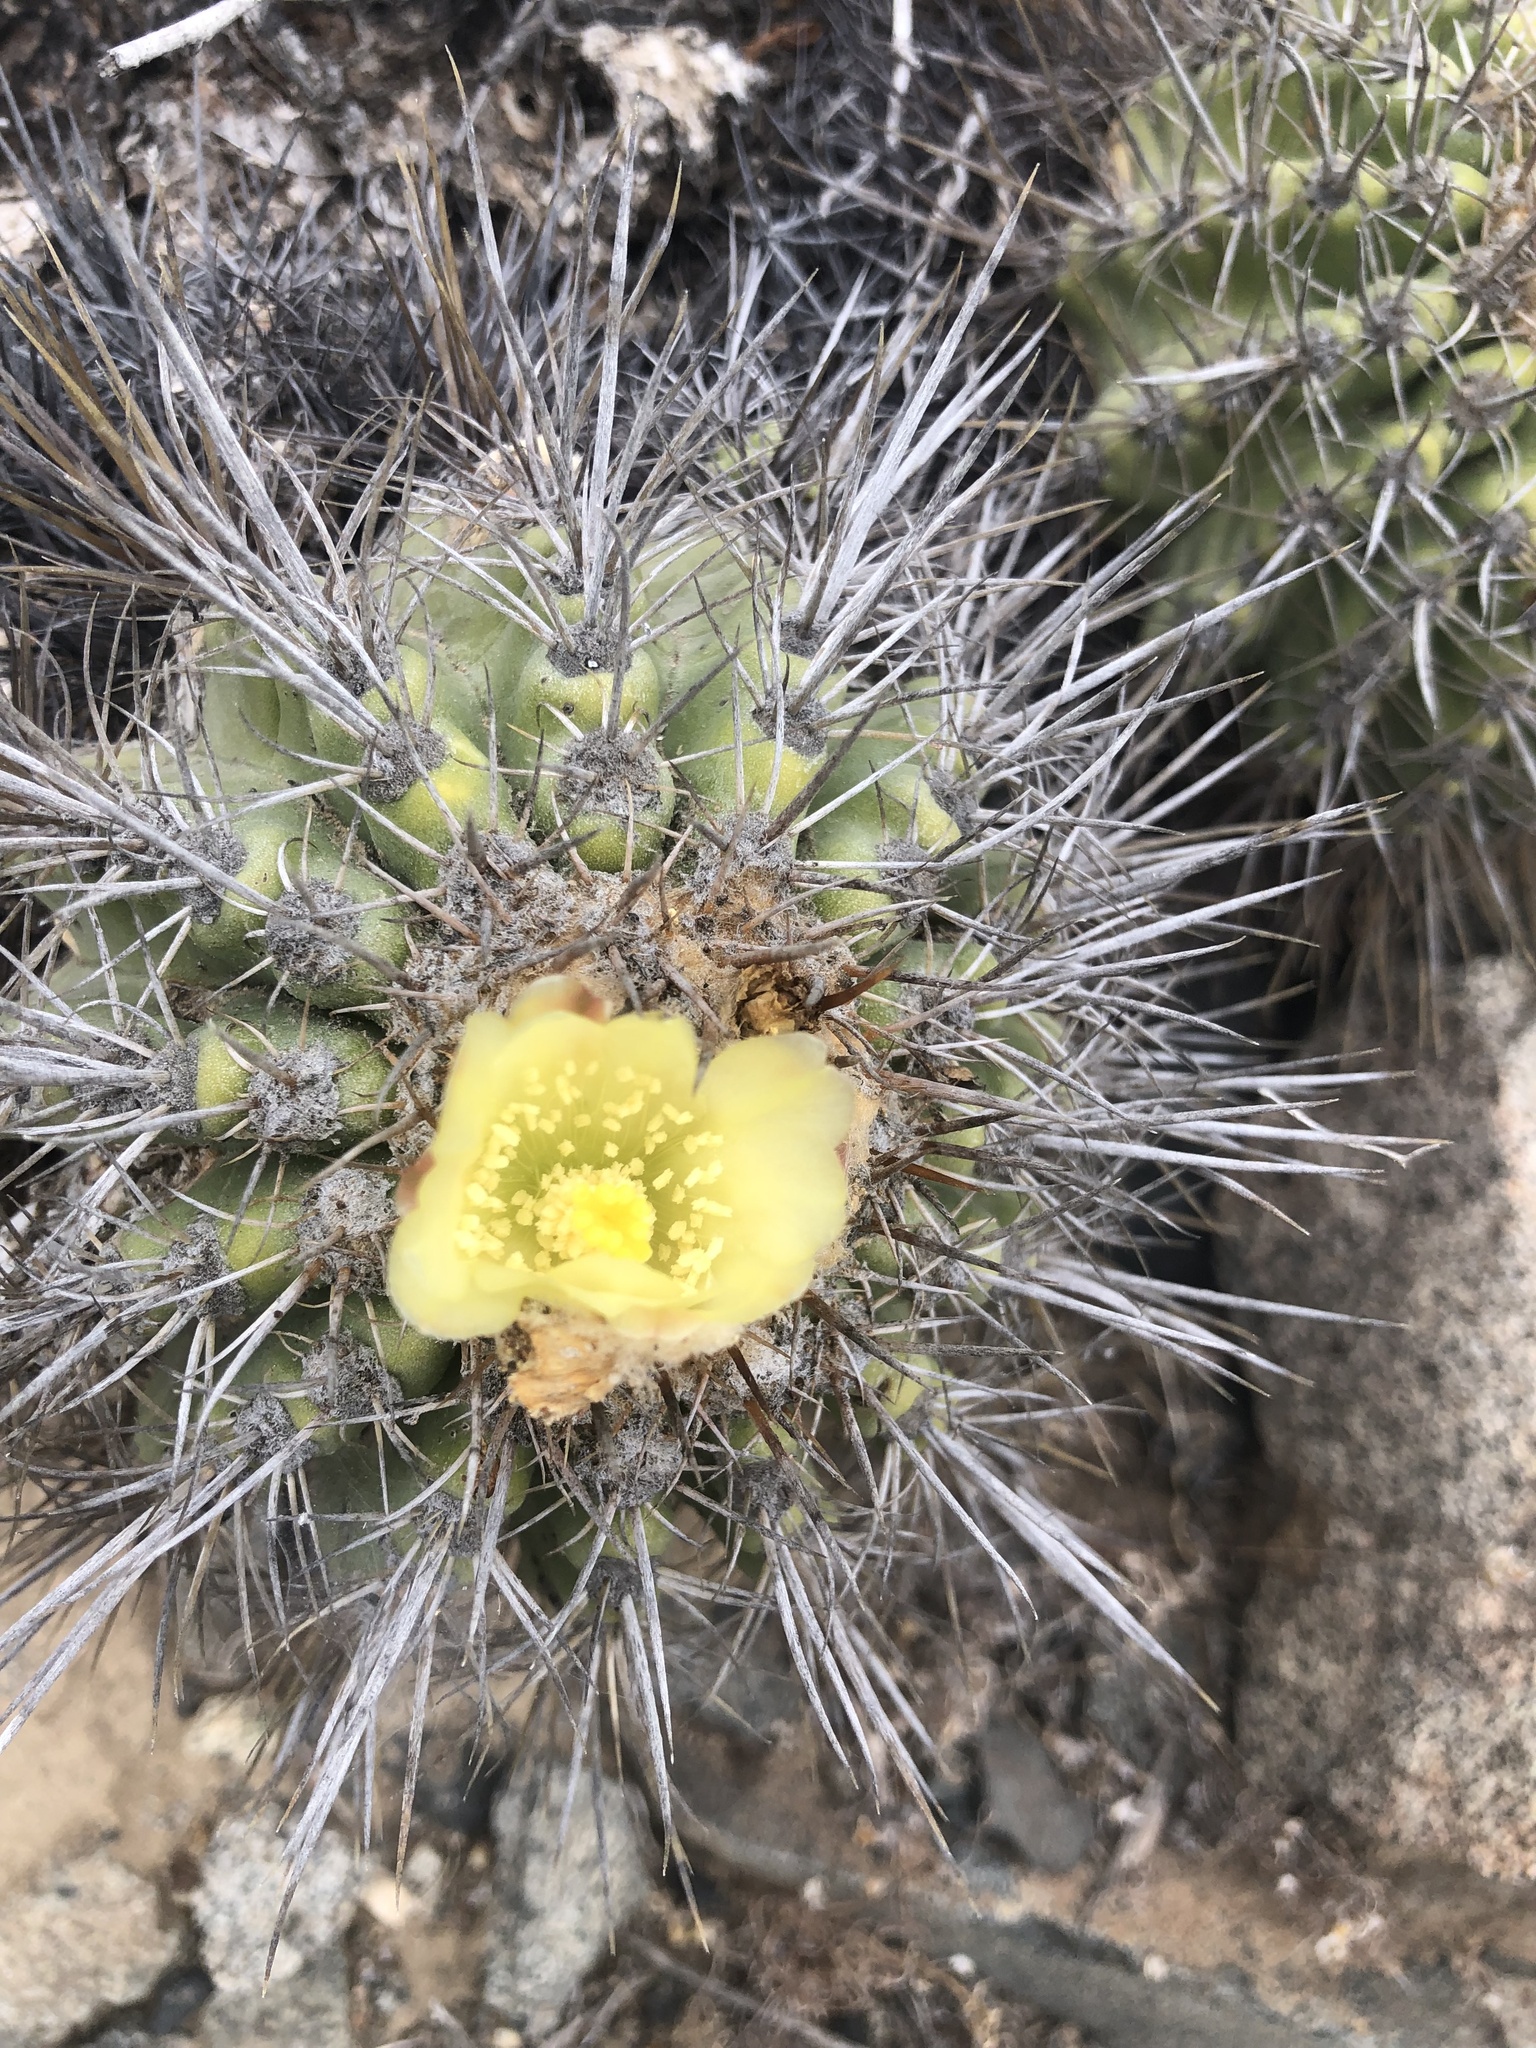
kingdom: Plantae
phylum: Tracheophyta
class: Magnoliopsida
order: Caryophyllales
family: Cactaceae
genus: Copiapoa
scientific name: Copiapoa coquimbana
